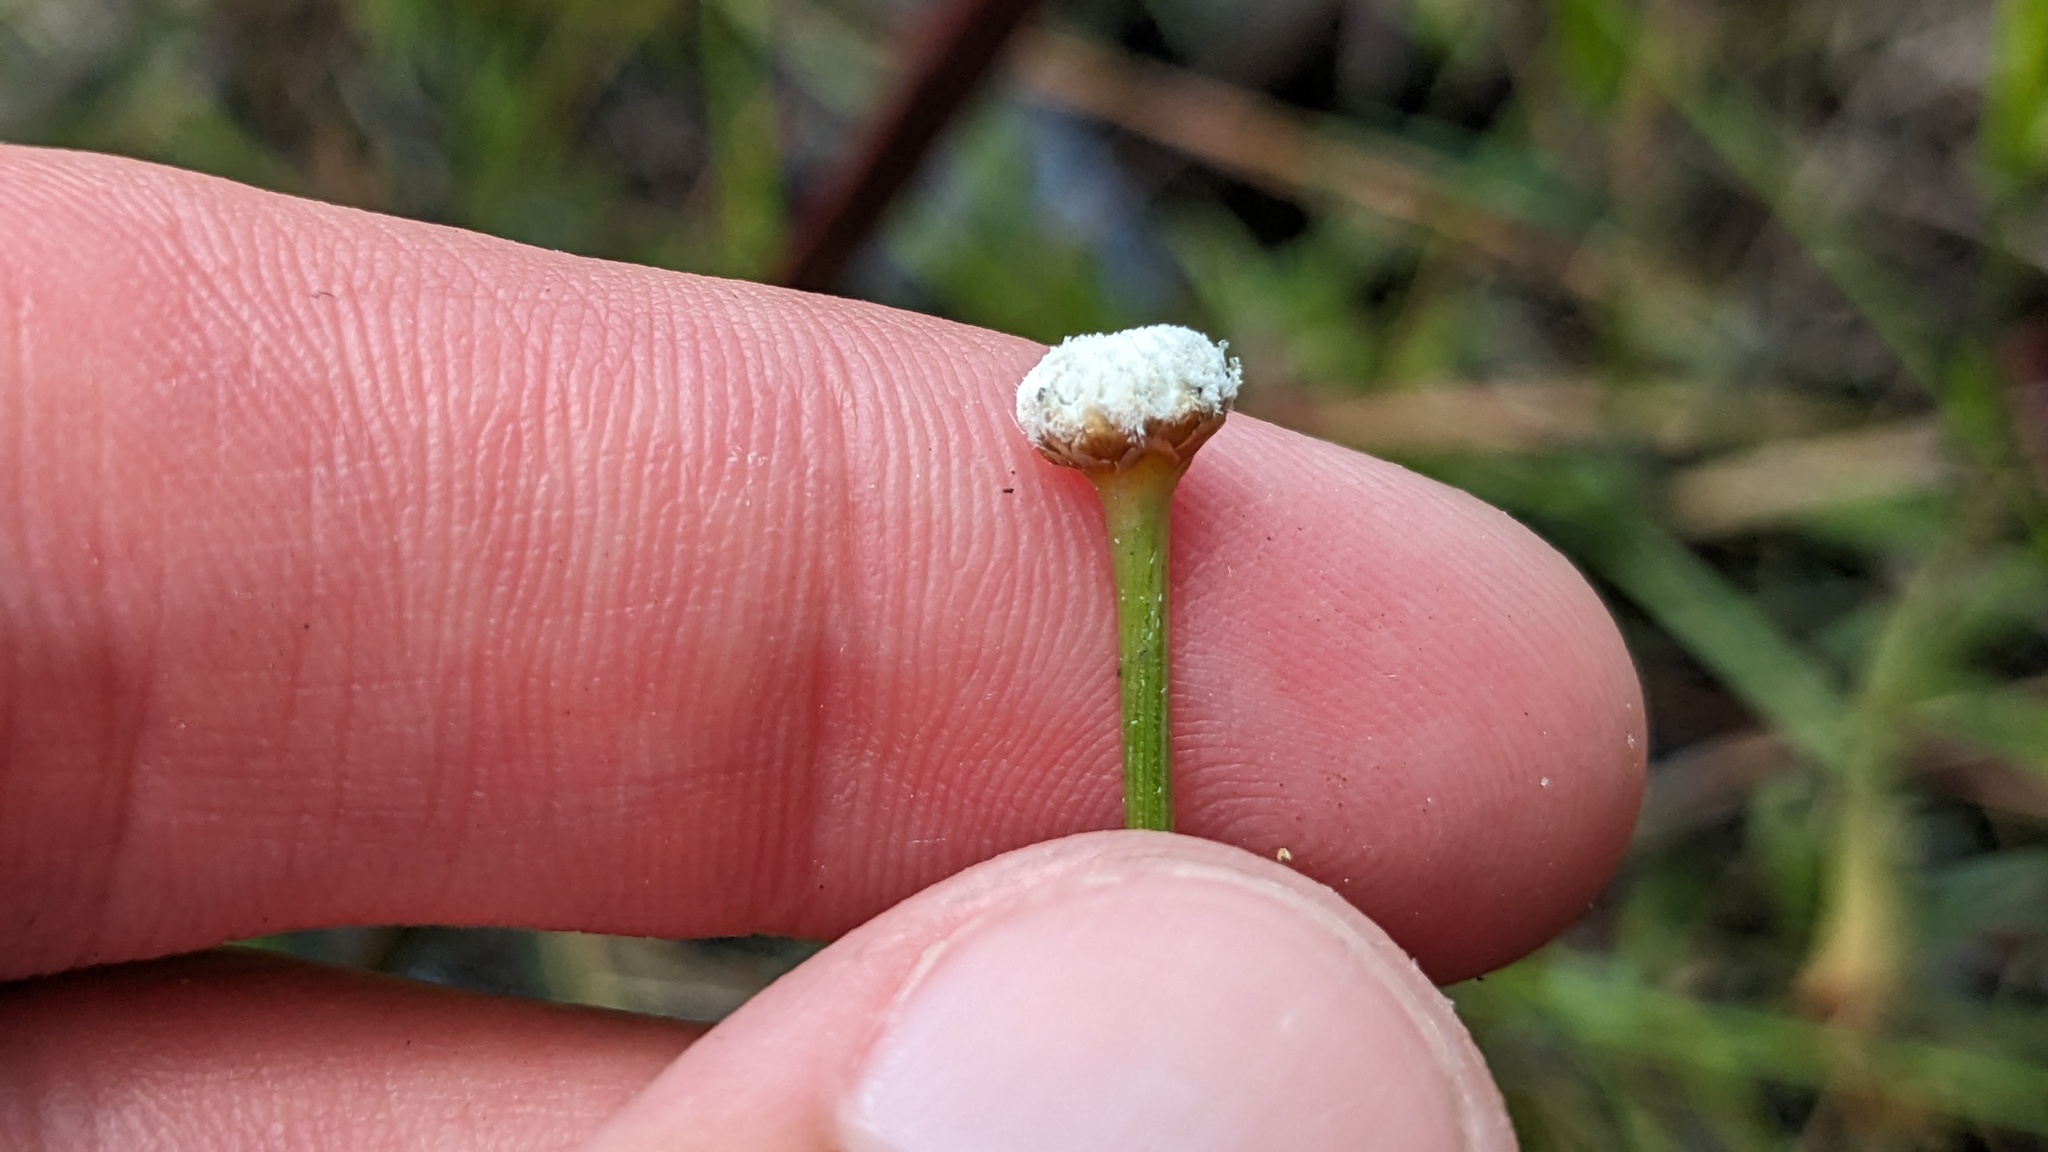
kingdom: Plantae
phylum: Tracheophyta
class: Liliopsida
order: Poales
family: Eriocaulaceae
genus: Eriocaulon
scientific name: Eriocaulon decangulare
